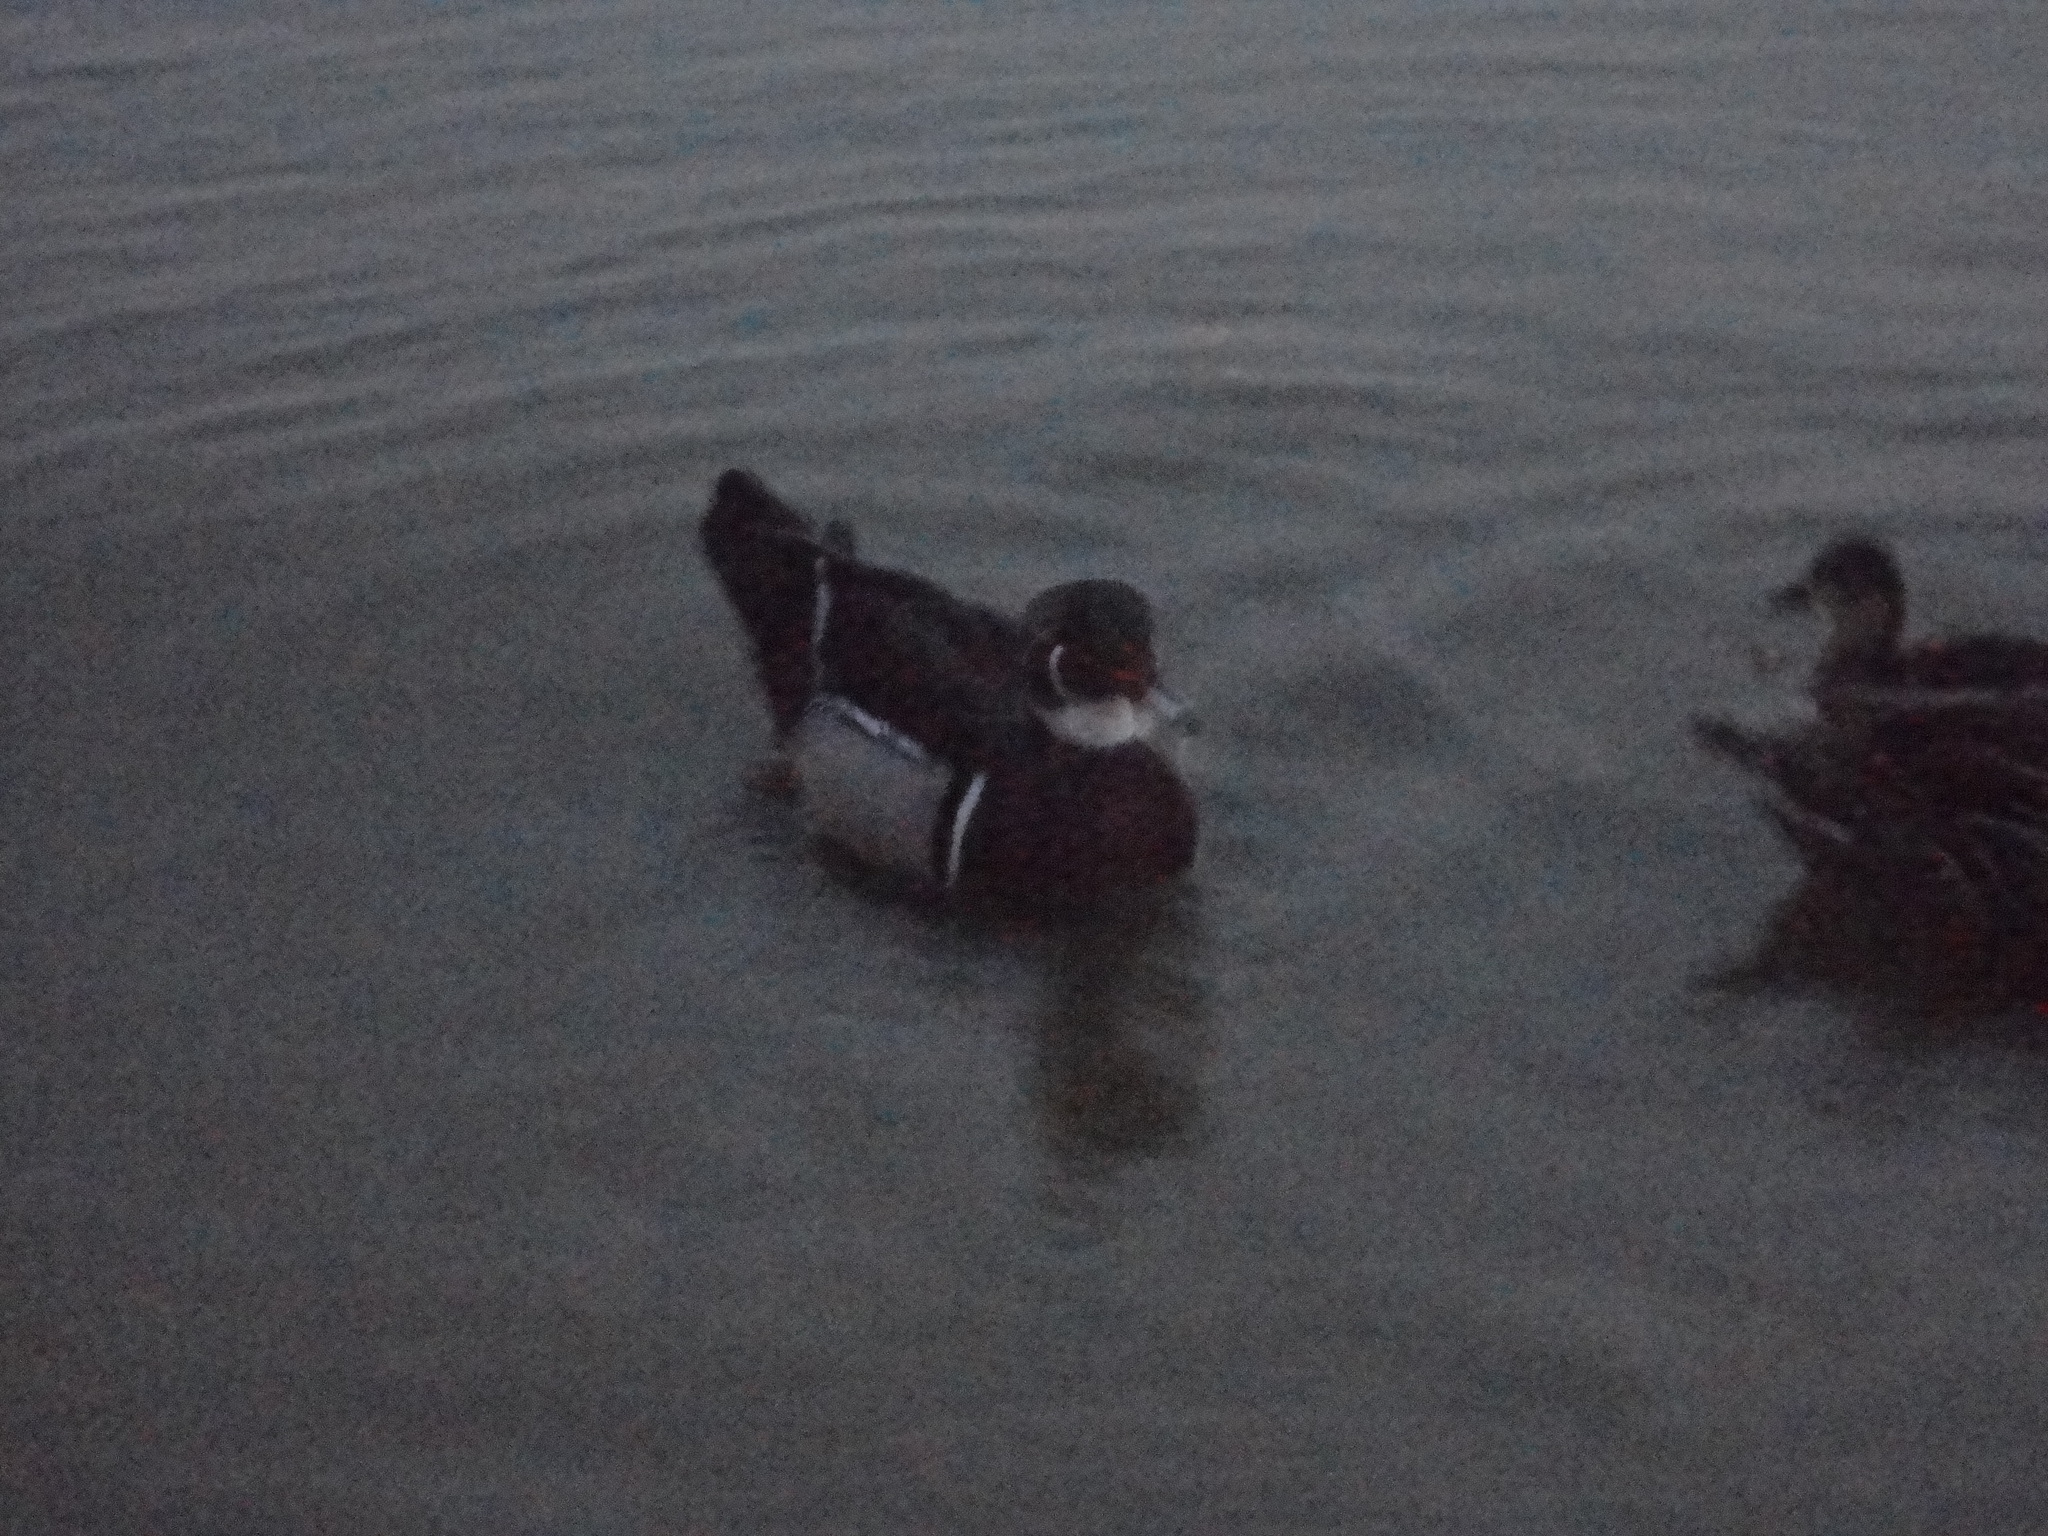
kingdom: Animalia
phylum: Chordata
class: Aves
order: Anseriformes
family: Anatidae
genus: Aix
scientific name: Aix sponsa
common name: Wood duck
